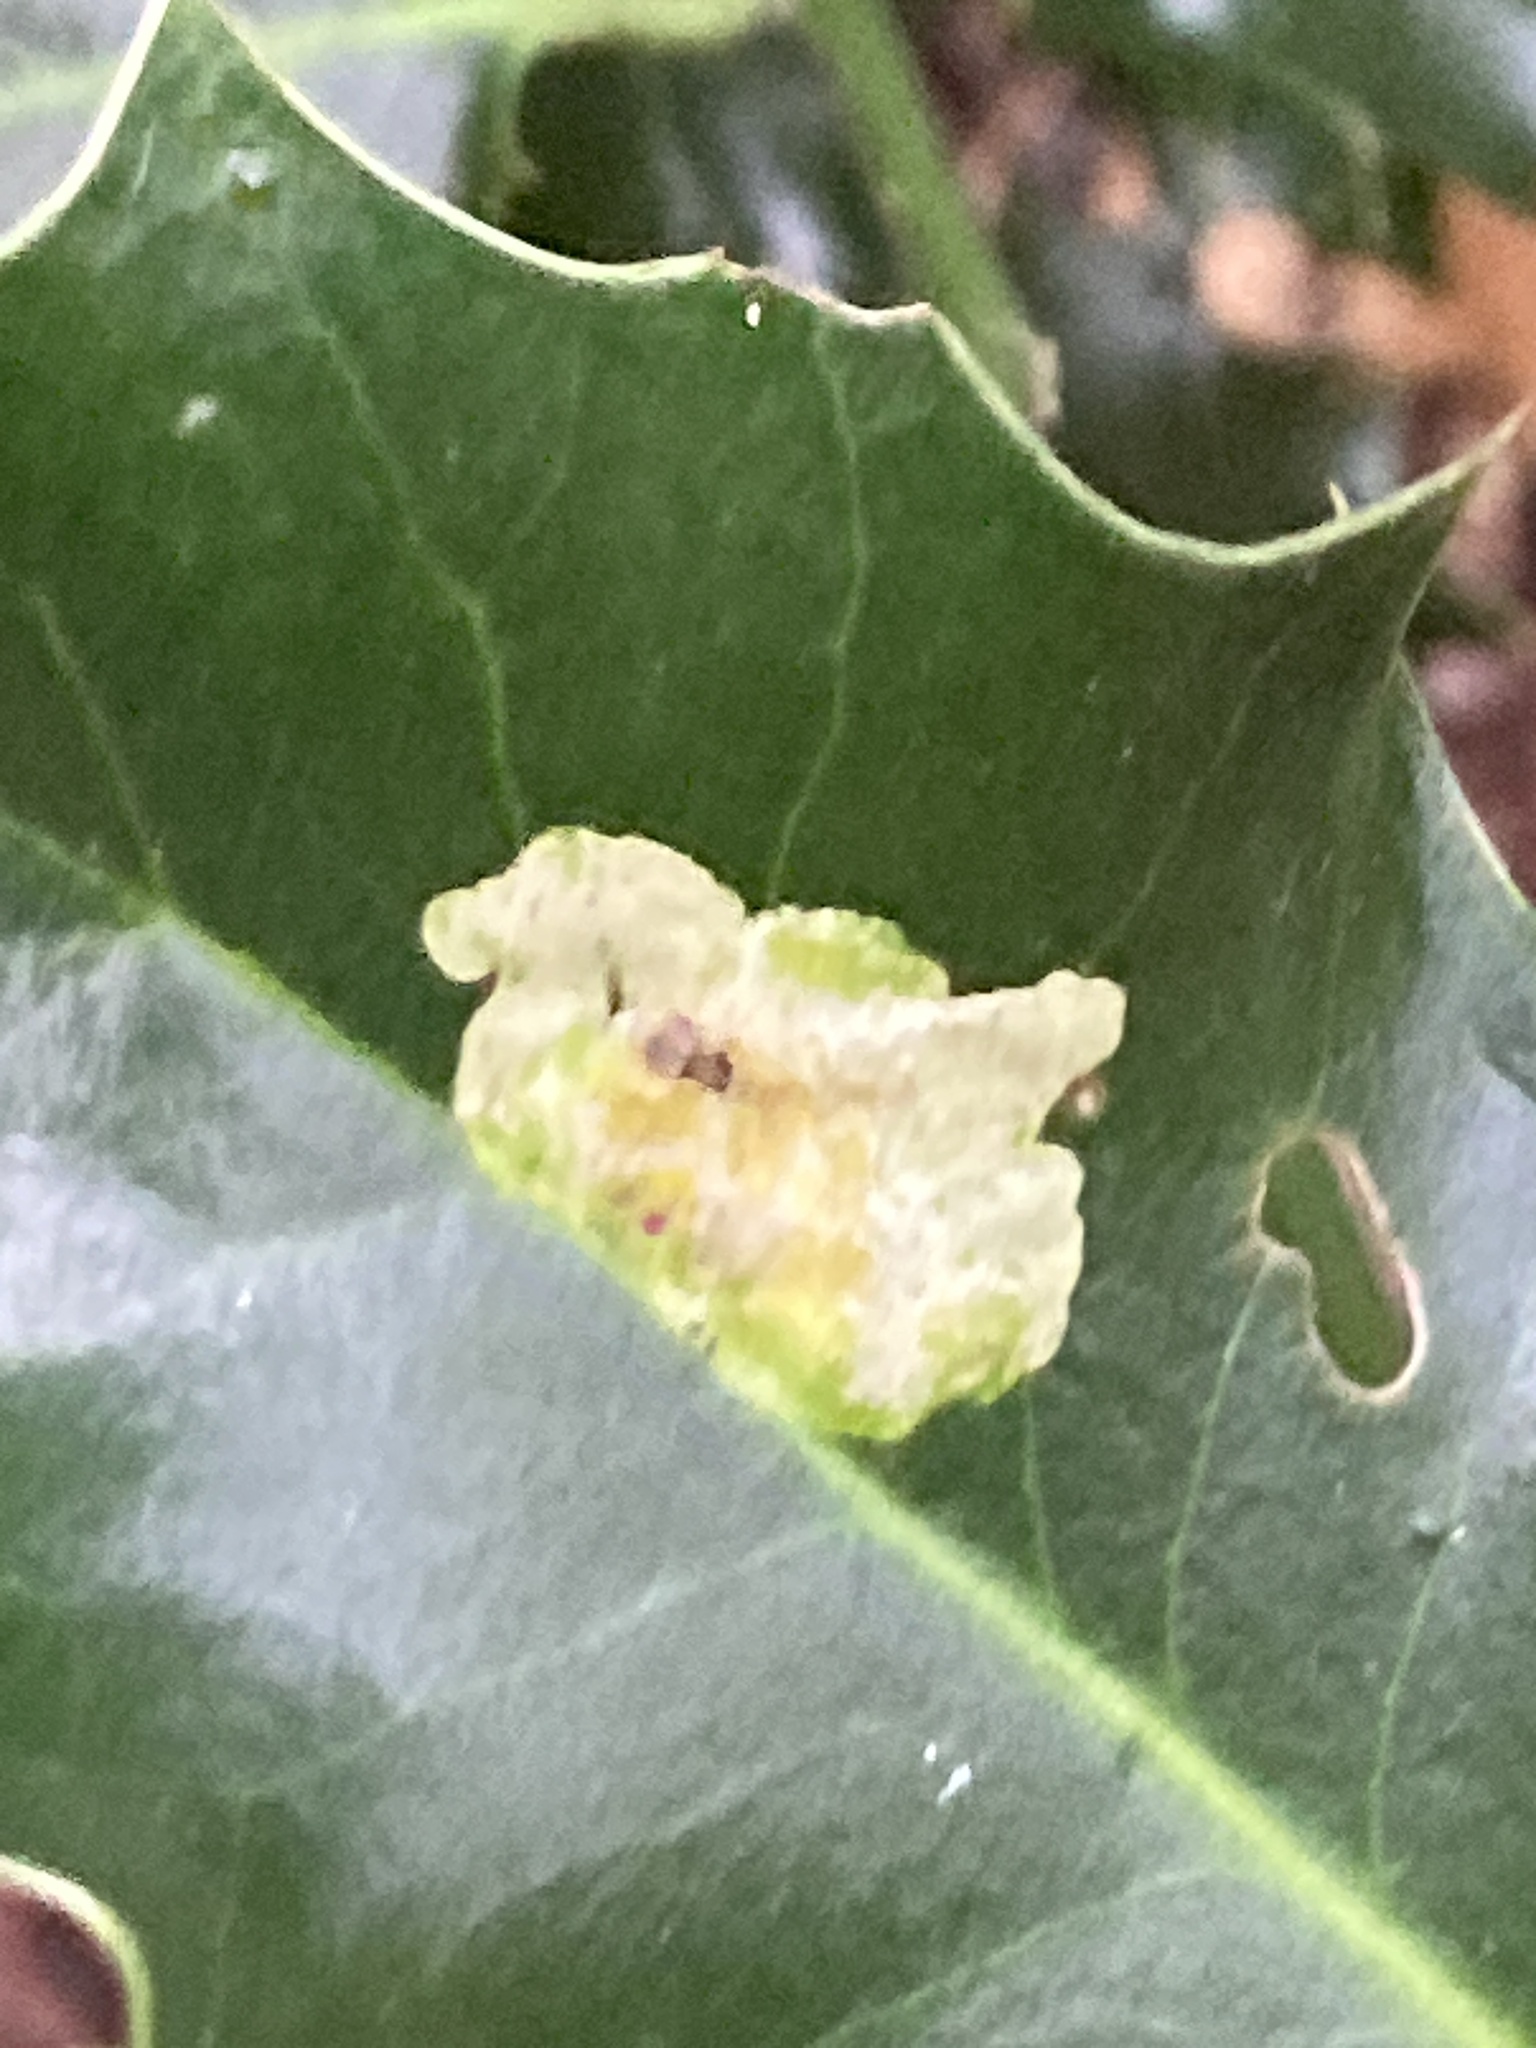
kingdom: Animalia
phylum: Arthropoda
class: Insecta
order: Diptera
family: Agromyzidae
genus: Phytomyza
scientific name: Phytomyza ilicis
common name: Holly leafminer
